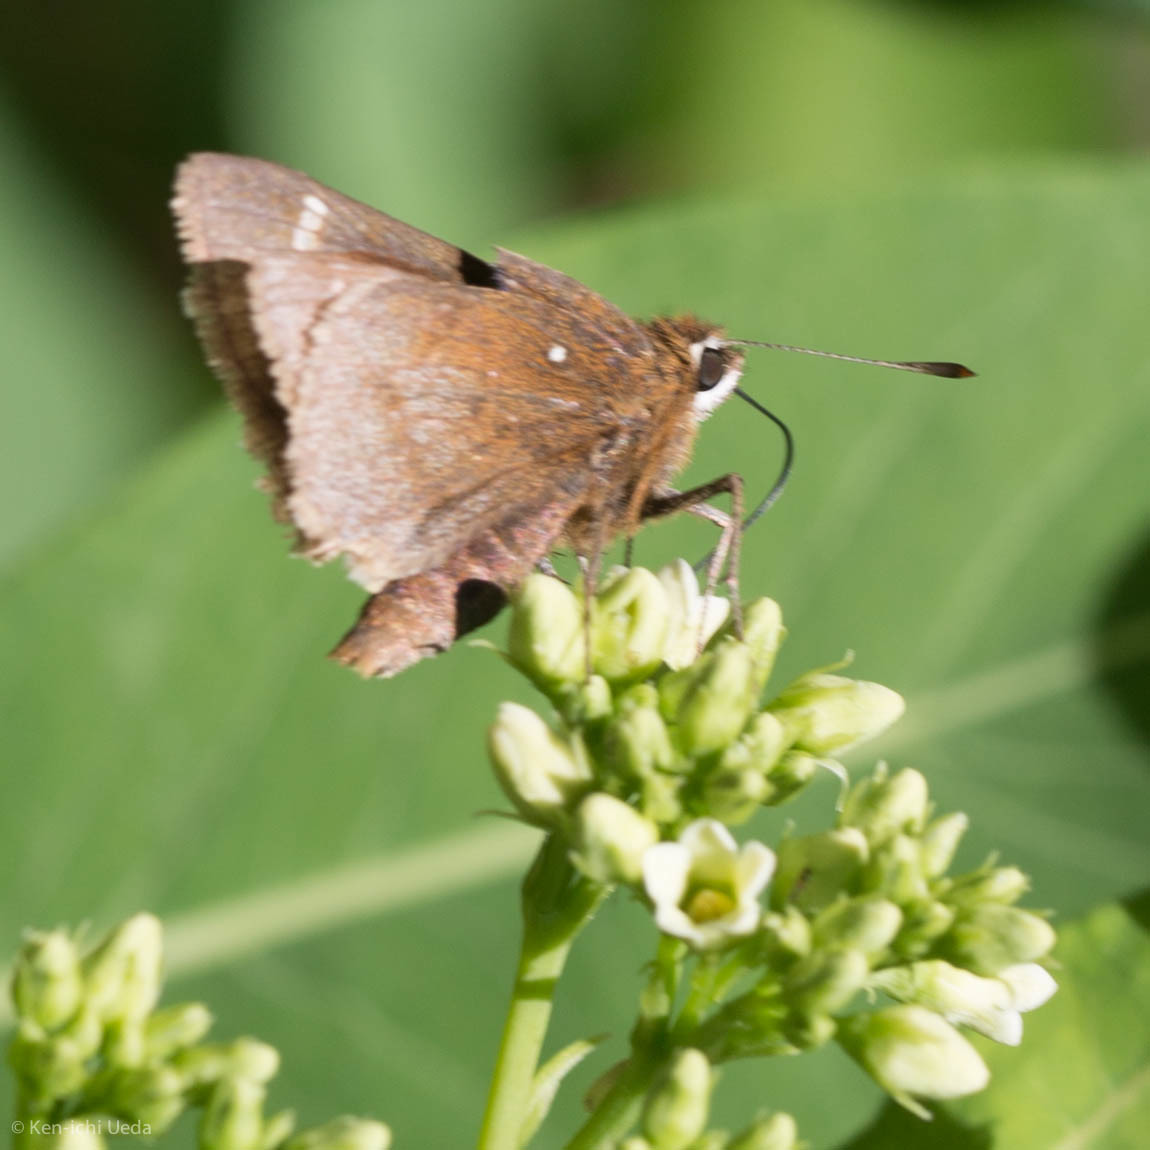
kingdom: Animalia
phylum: Arthropoda
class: Insecta
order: Lepidoptera
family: Hesperiidae
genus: Atrytonopsis
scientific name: Atrytonopsis hianna
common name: Dusted skipper
